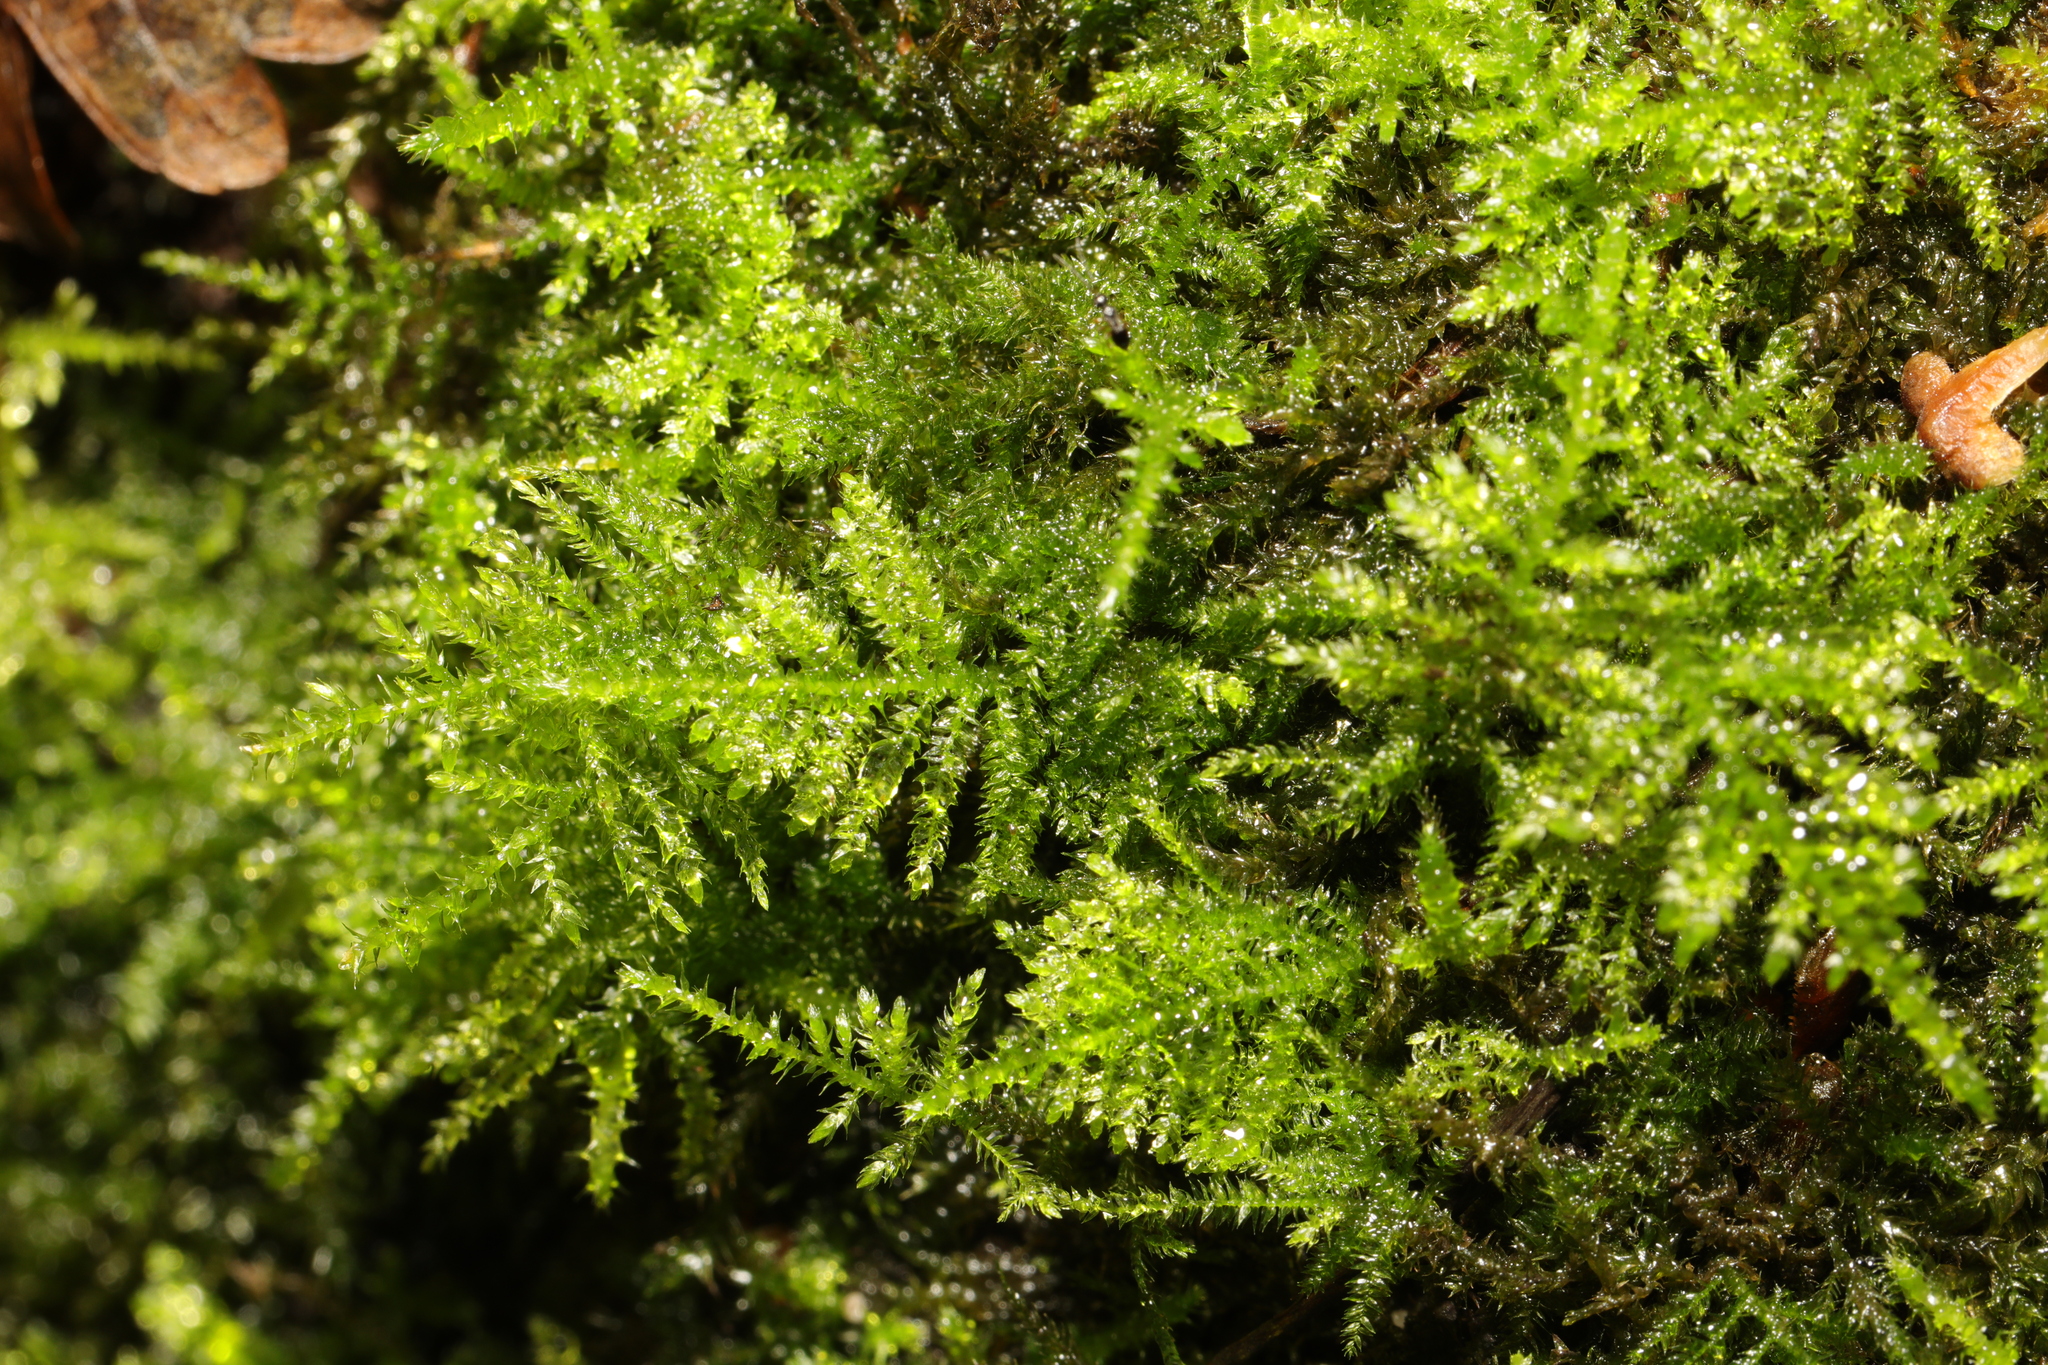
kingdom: Plantae
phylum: Bryophyta
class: Bryopsida
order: Hypnales
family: Brachytheciaceae
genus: Kindbergia
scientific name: Kindbergia praelonga
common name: Slender beaked moss
